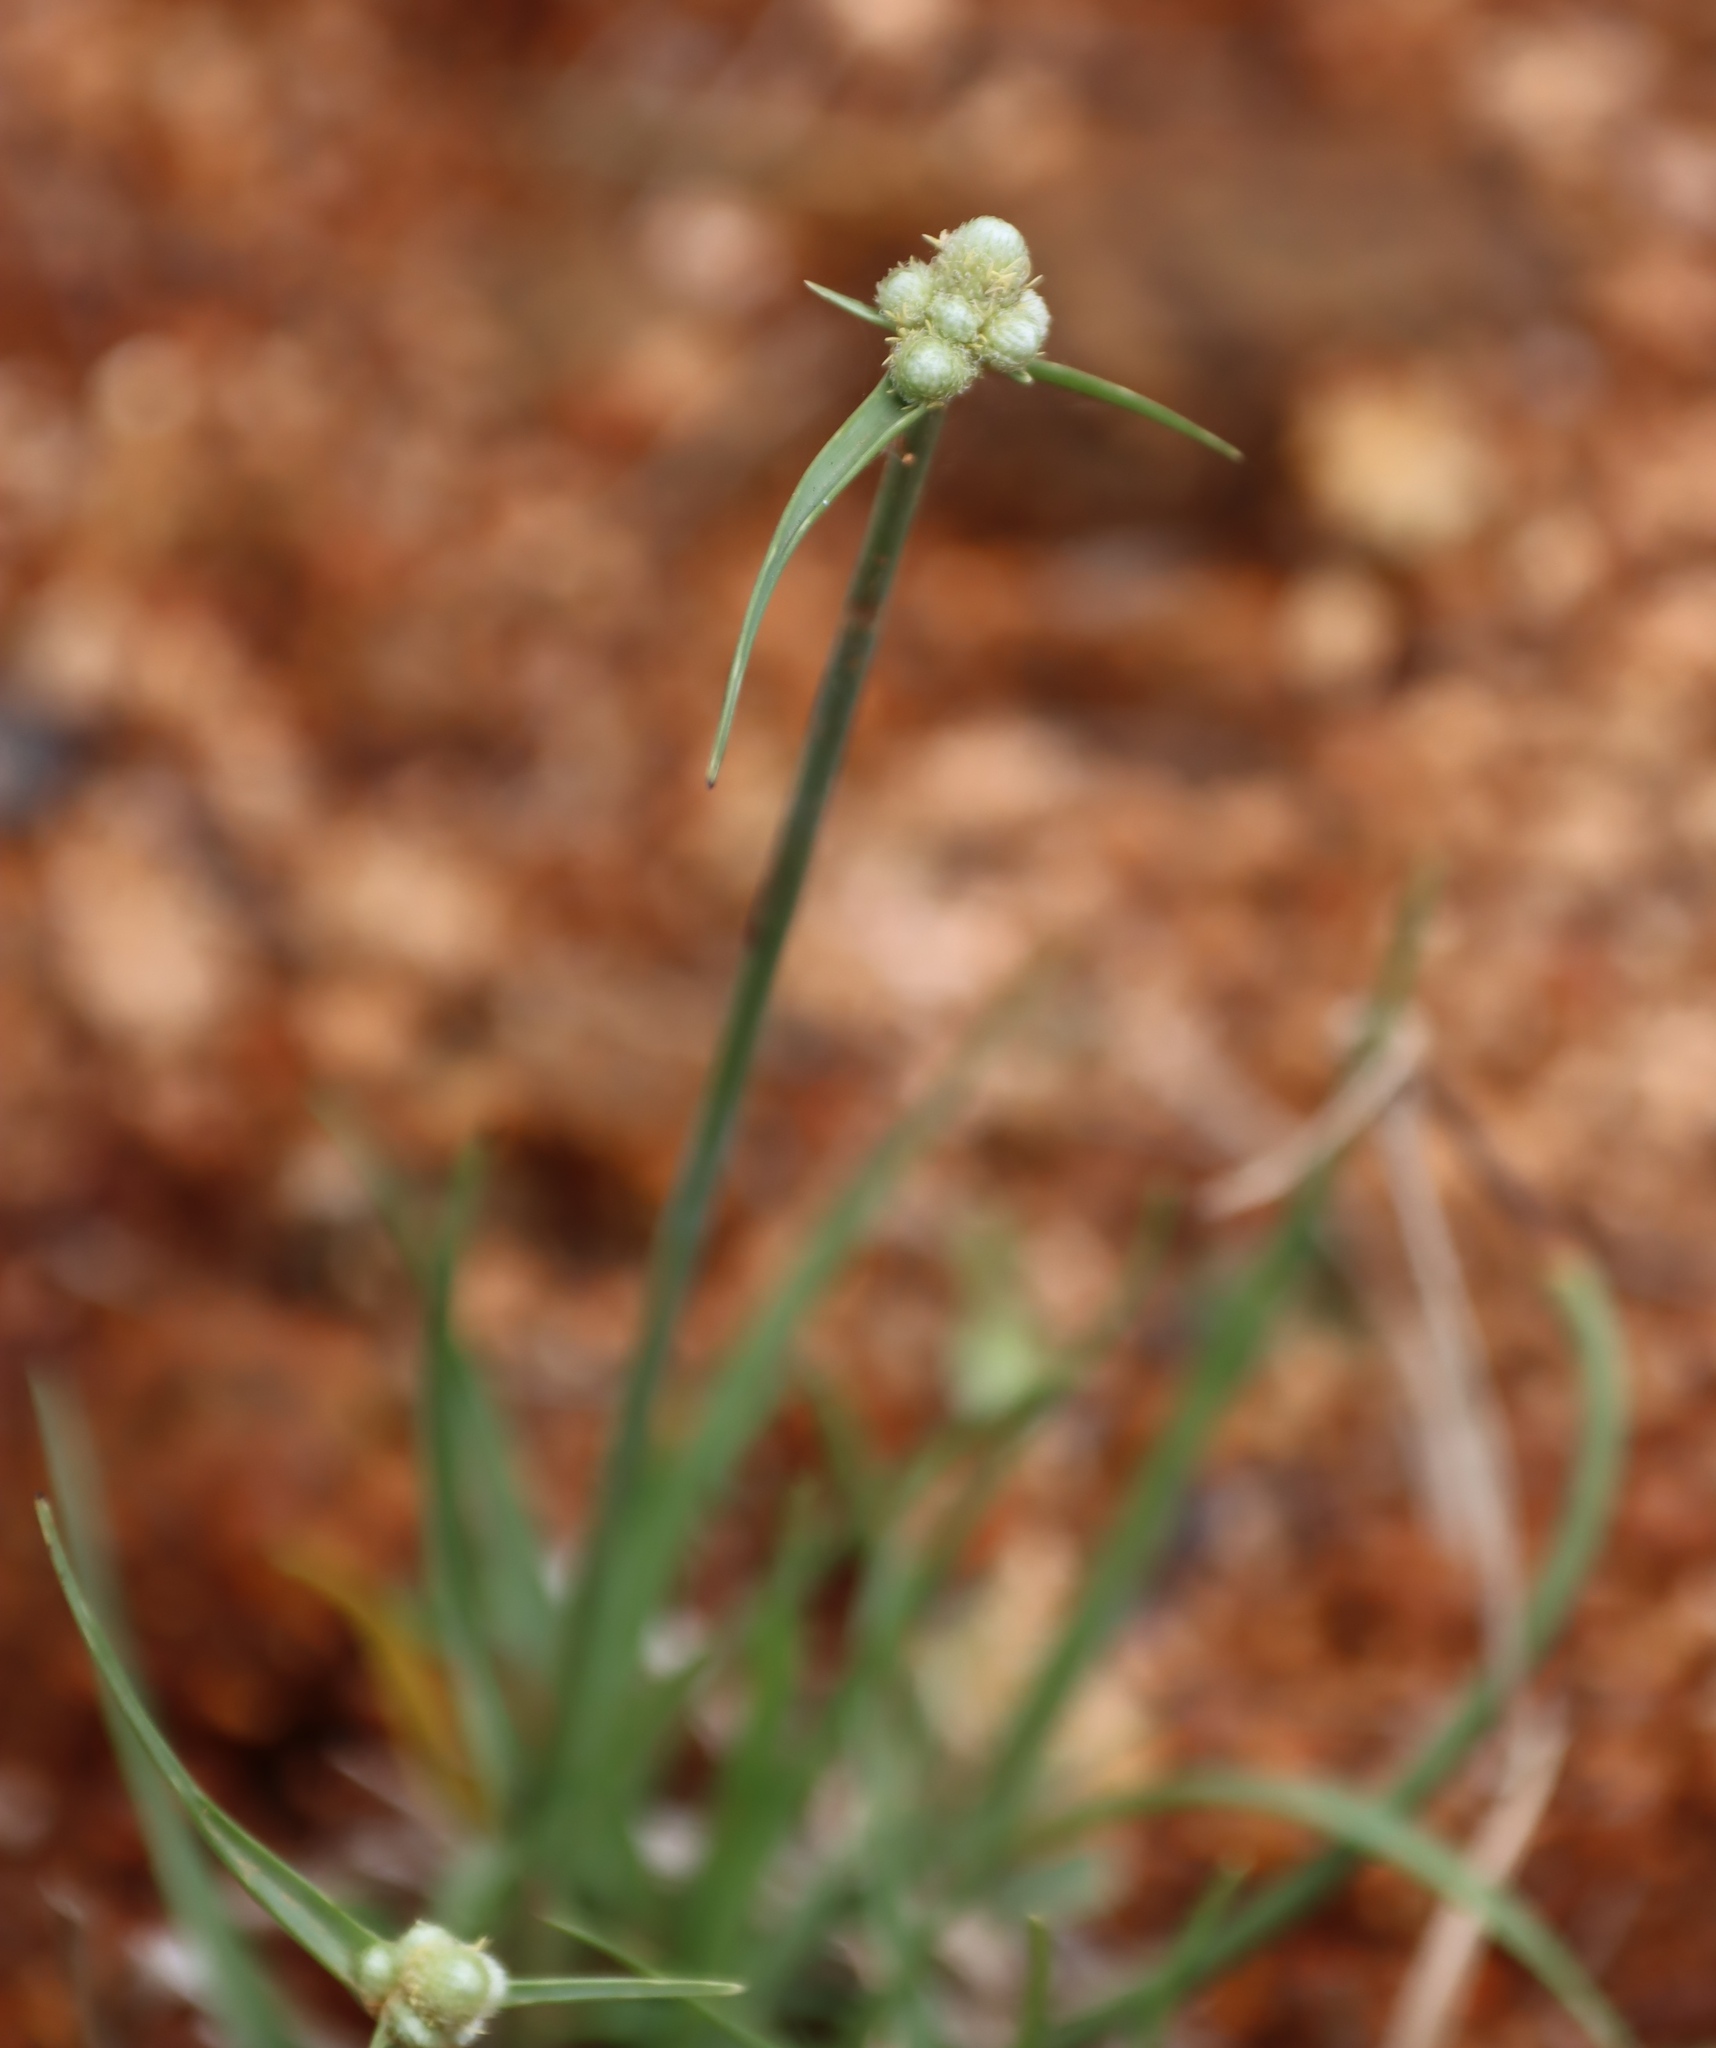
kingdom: Plantae
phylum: Tracheophyta
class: Liliopsida
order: Poales
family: Cyperaceae
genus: Cyperus
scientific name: Cyperus albescens
